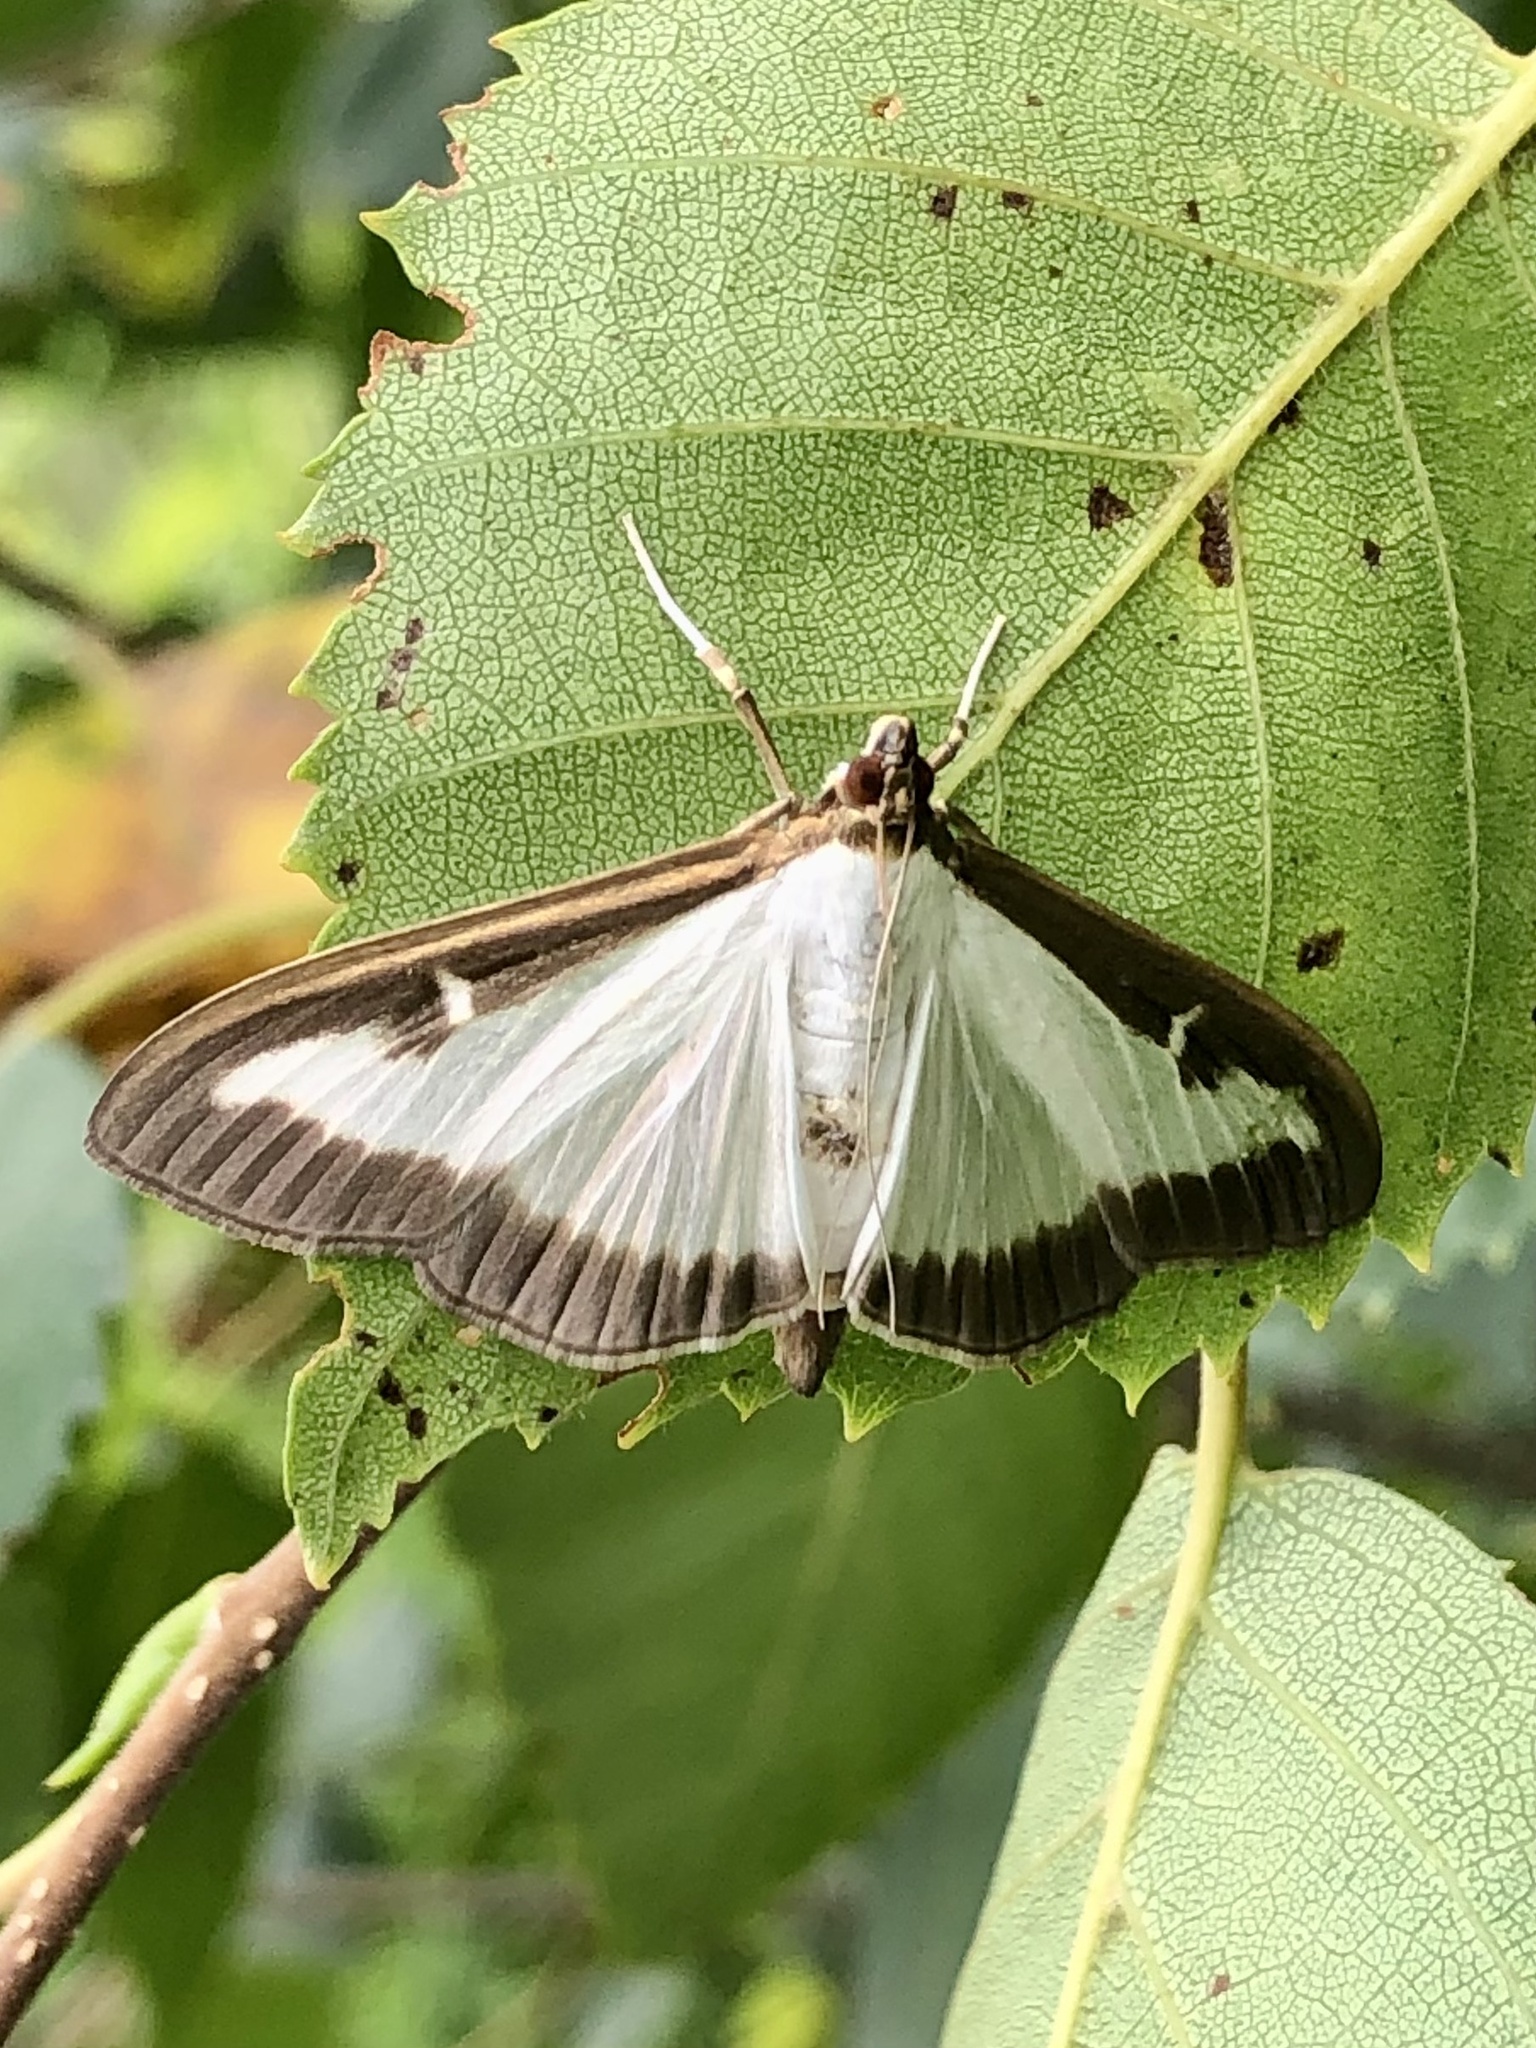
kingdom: Animalia
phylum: Arthropoda
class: Insecta
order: Lepidoptera
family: Crambidae
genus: Cydalima
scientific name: Cydalima perspectalis
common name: Box tree moth
